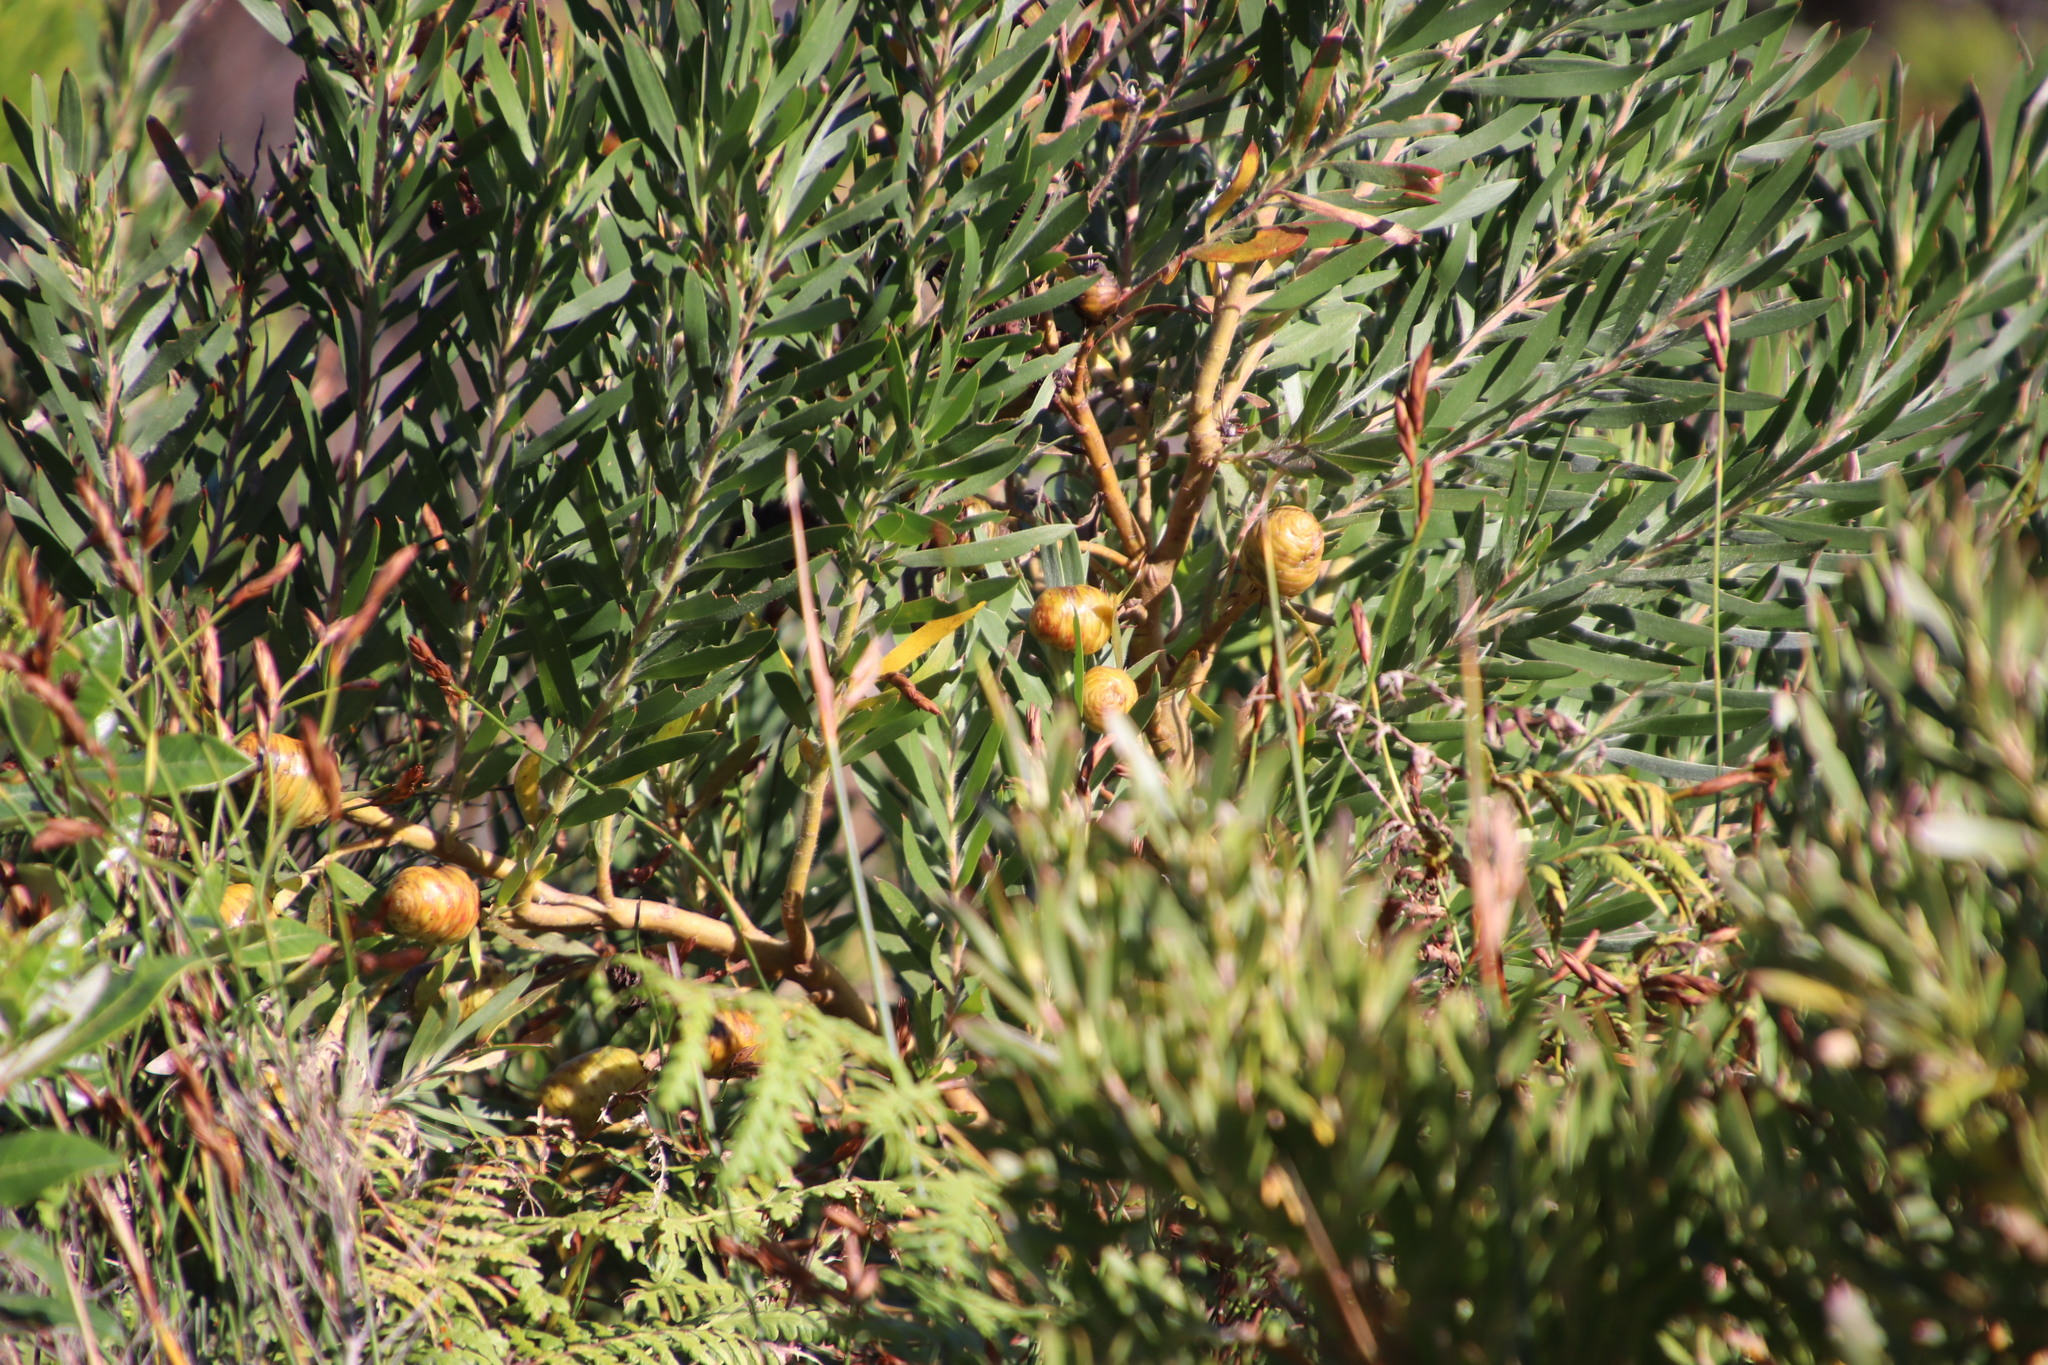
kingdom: Plantae
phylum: Tracheophyta
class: Magnoliopsida
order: Proteales
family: Proteaceae
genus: Leucadendron
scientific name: Leucadendron macowanii
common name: Acacia-leaf conebush
